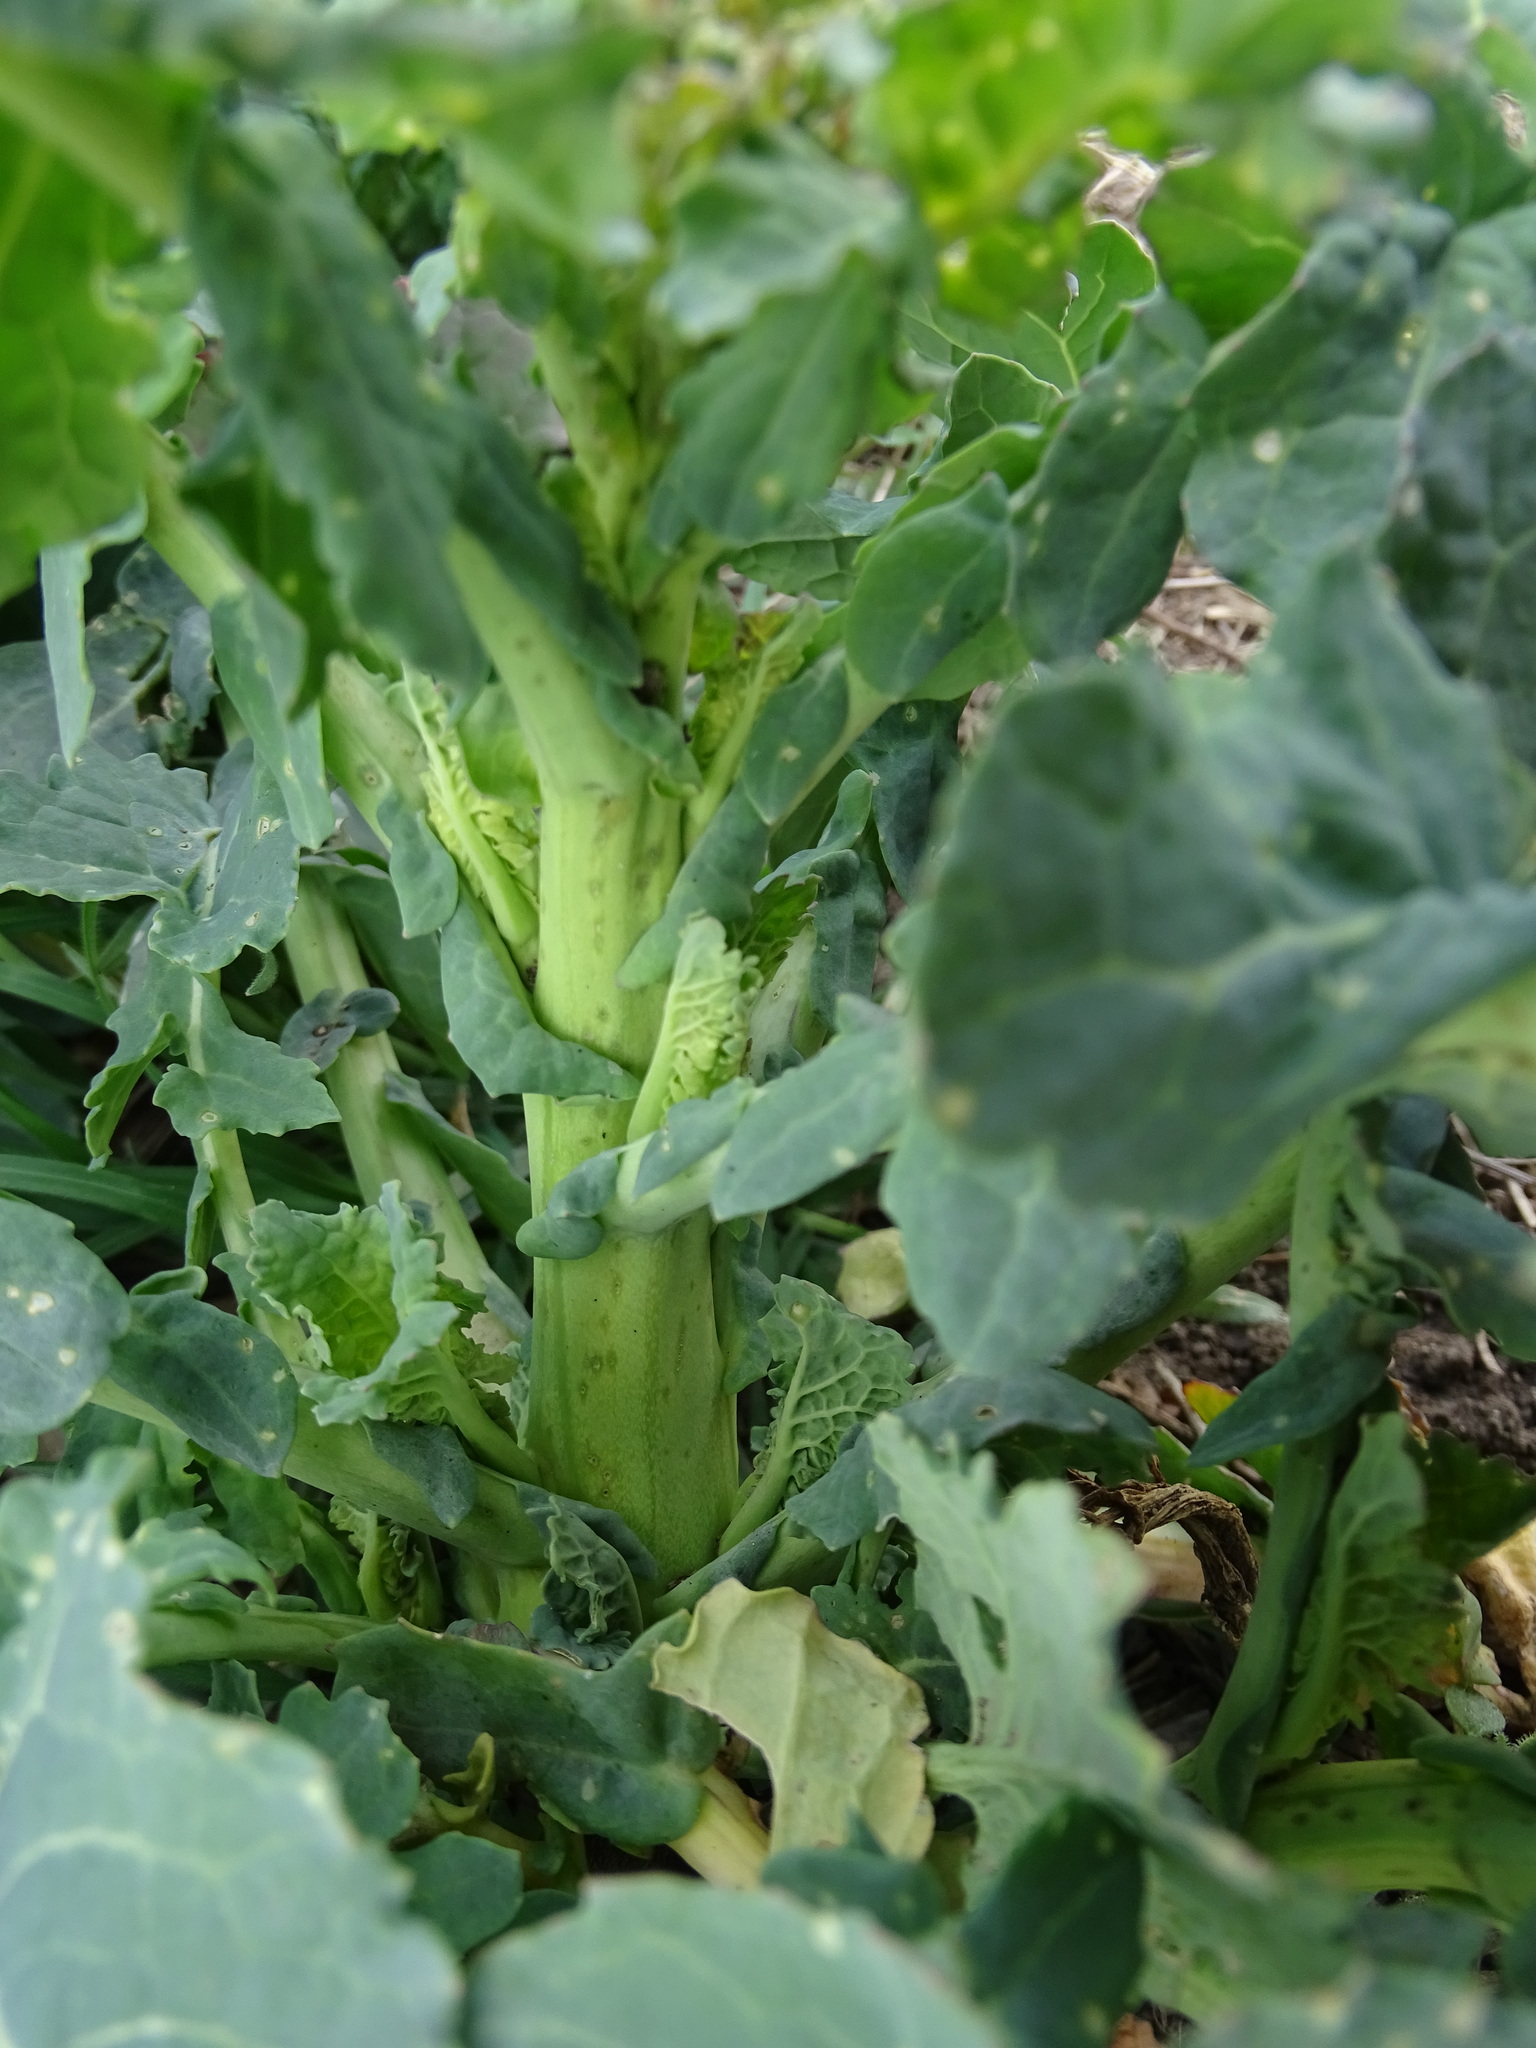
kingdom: Plantae
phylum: Tracheophyta
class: Magnoliopsida
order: Brassicales
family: Brassicaceae
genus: Brassica
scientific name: Brassica oleracea
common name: Cabbage
